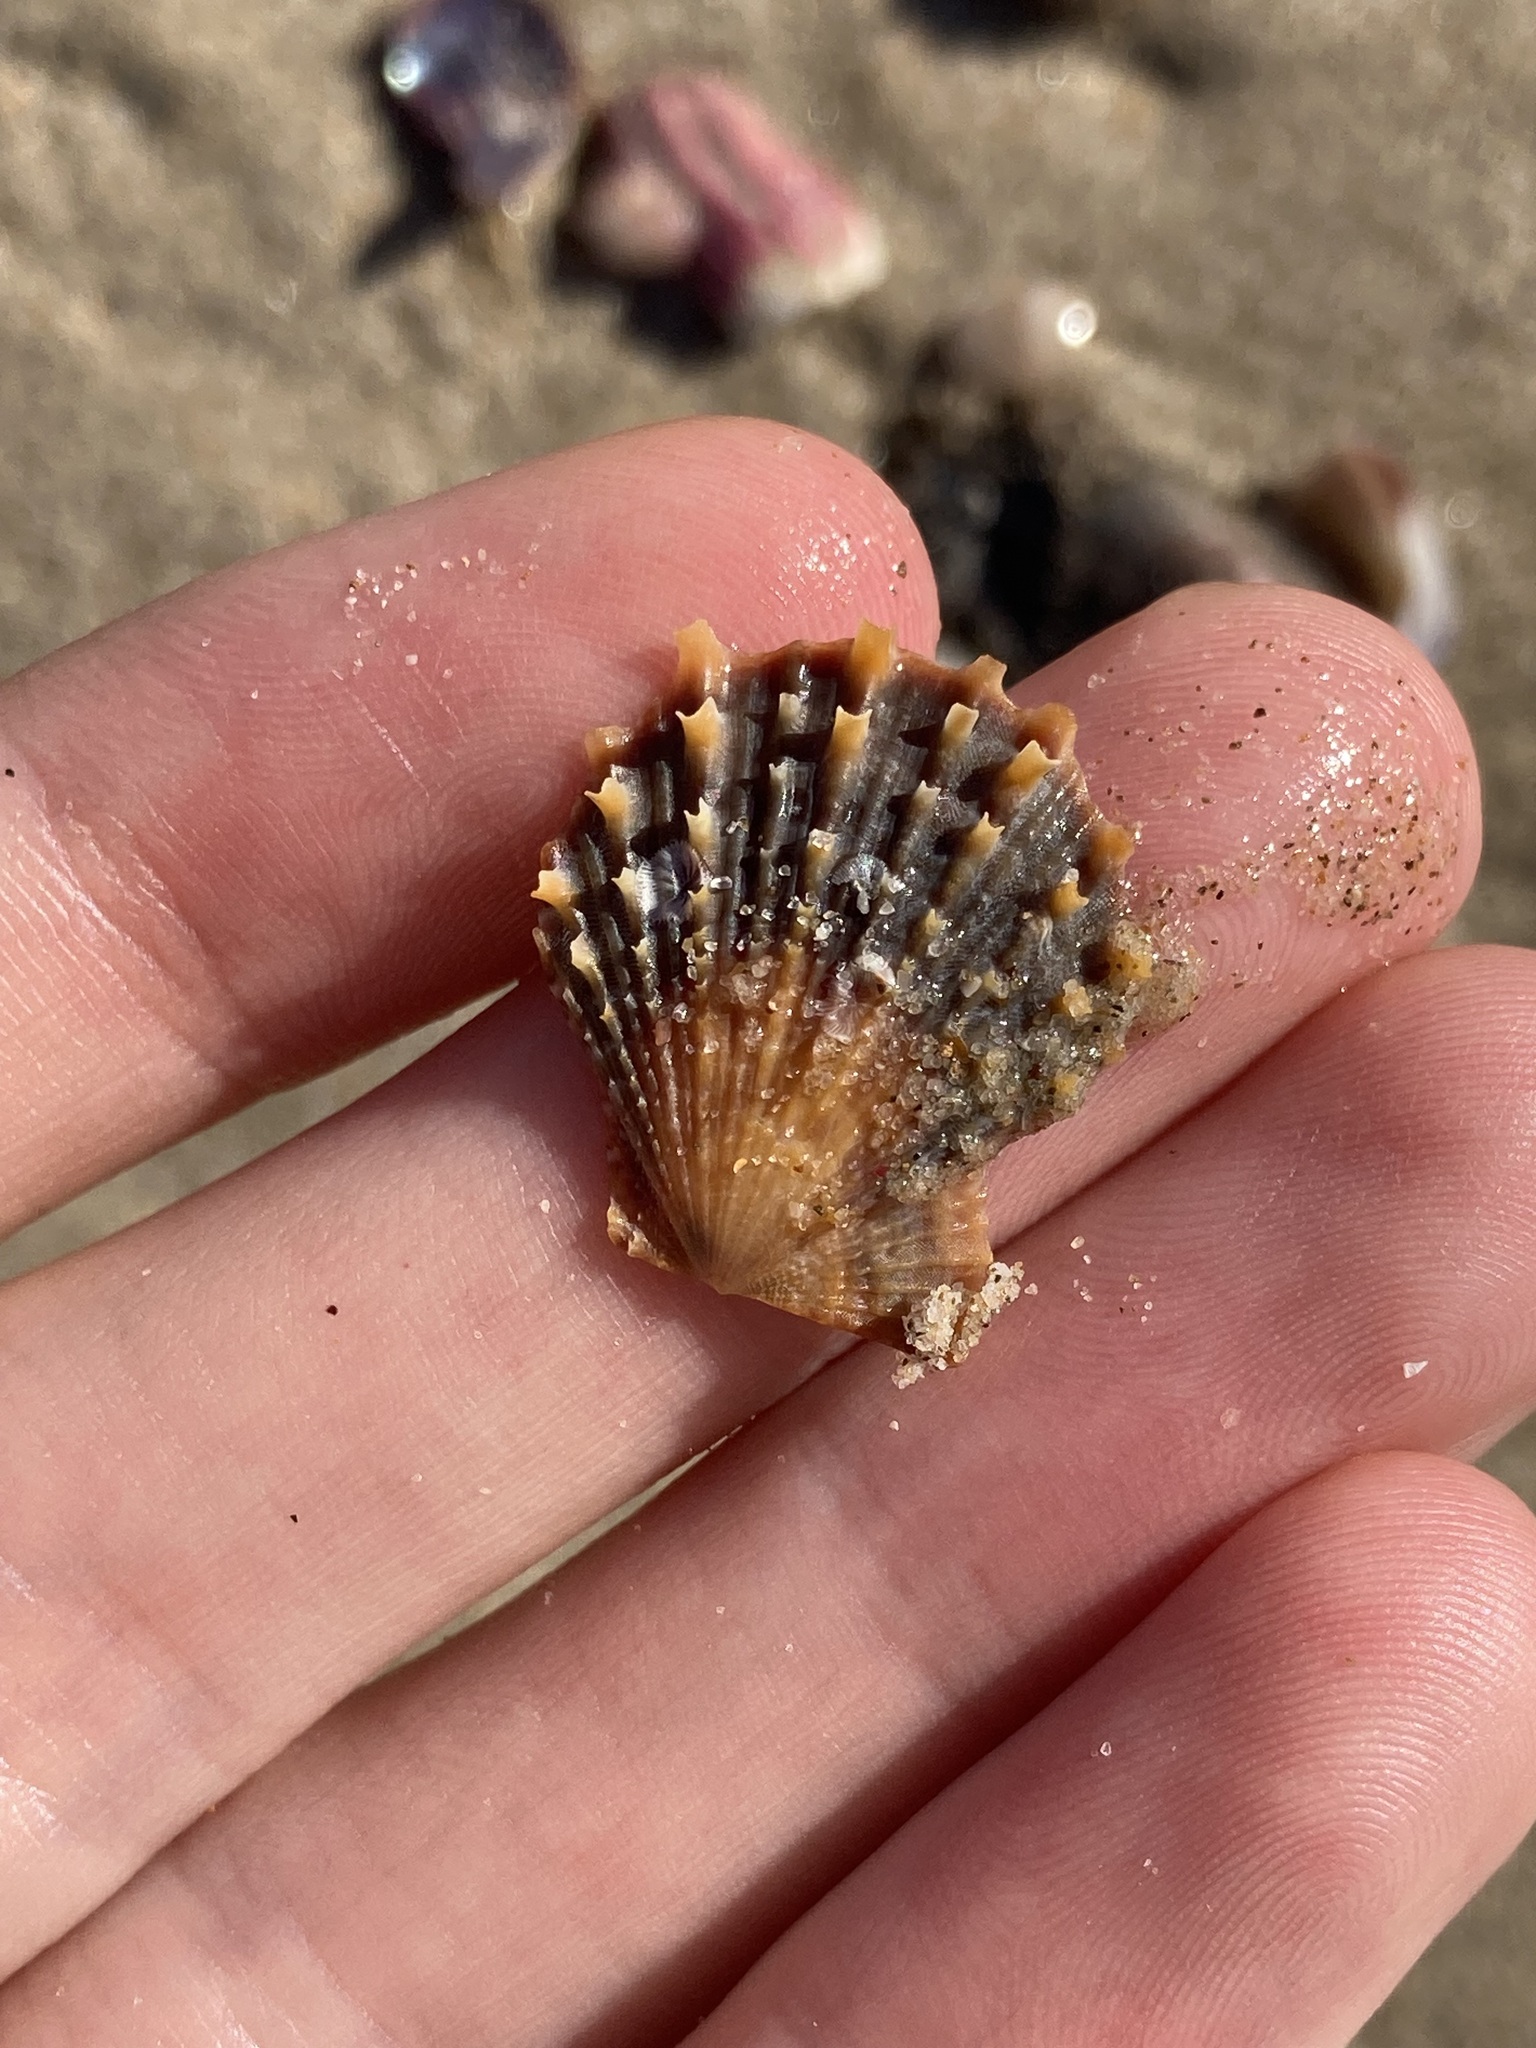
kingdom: Animalia
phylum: Mollusca
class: Bivalvia
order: Pectinida
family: Pectinidae
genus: Scaeochlamys
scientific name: Scaeochlamys livida
